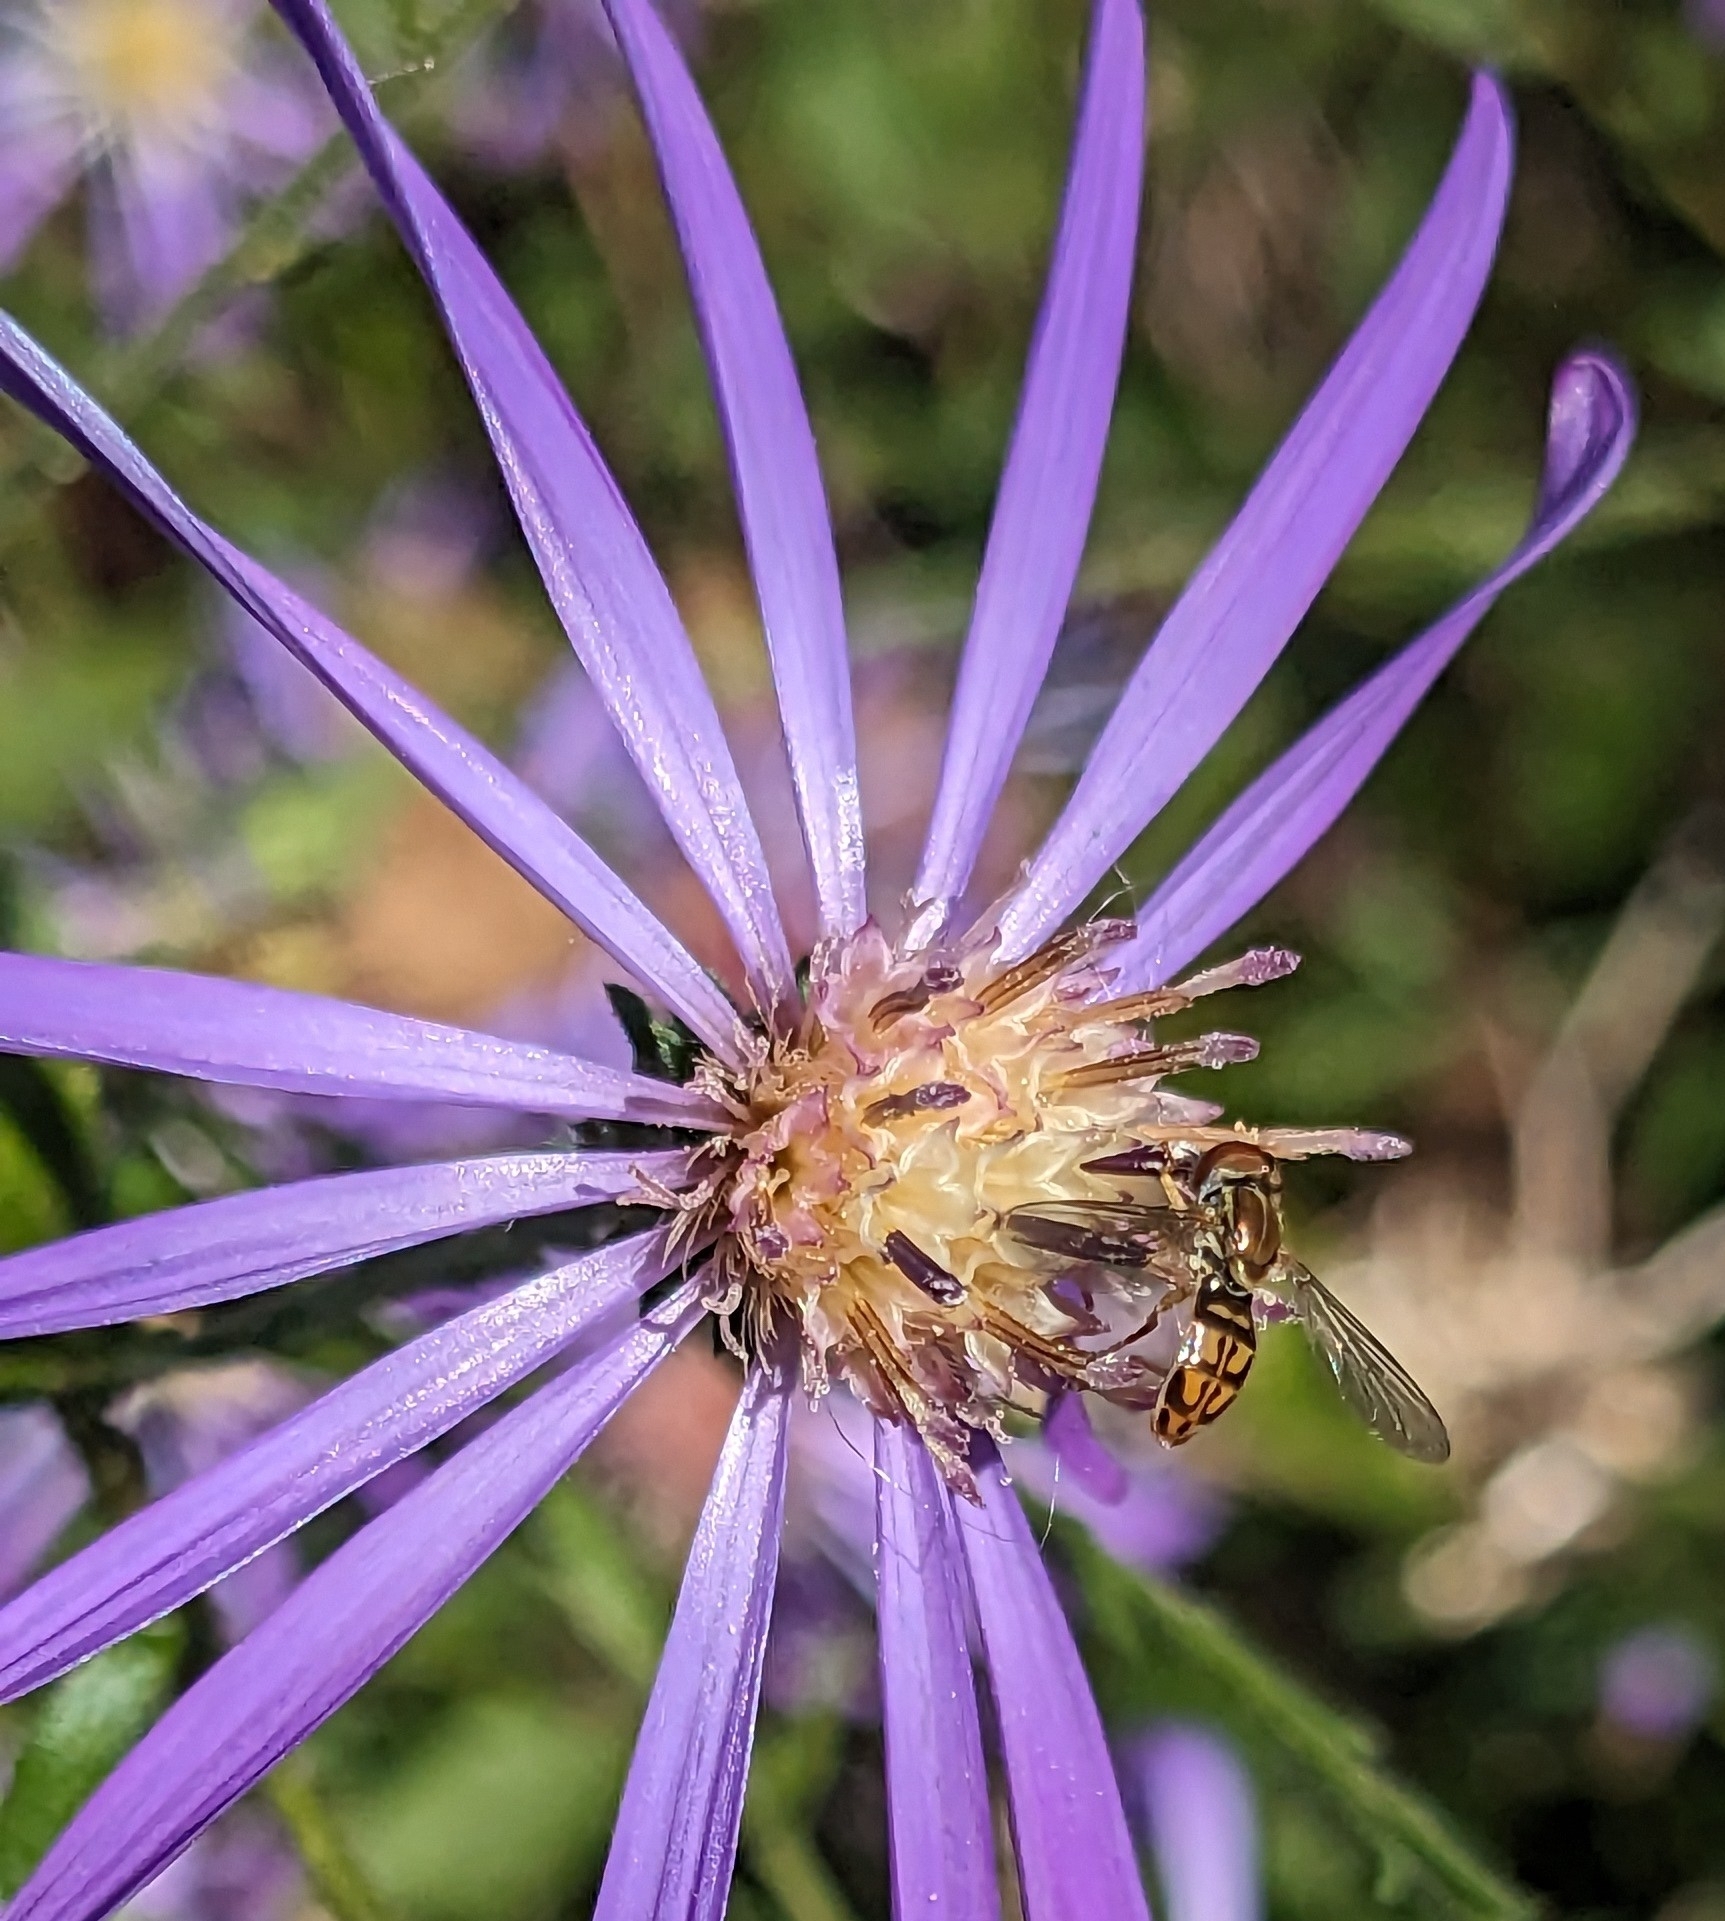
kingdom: Animalia
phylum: Arthropoda
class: Insecta
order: Diptera
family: Syrphidae
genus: Toxomerus
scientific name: Toxomerus marginatus
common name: Syrphid fly
